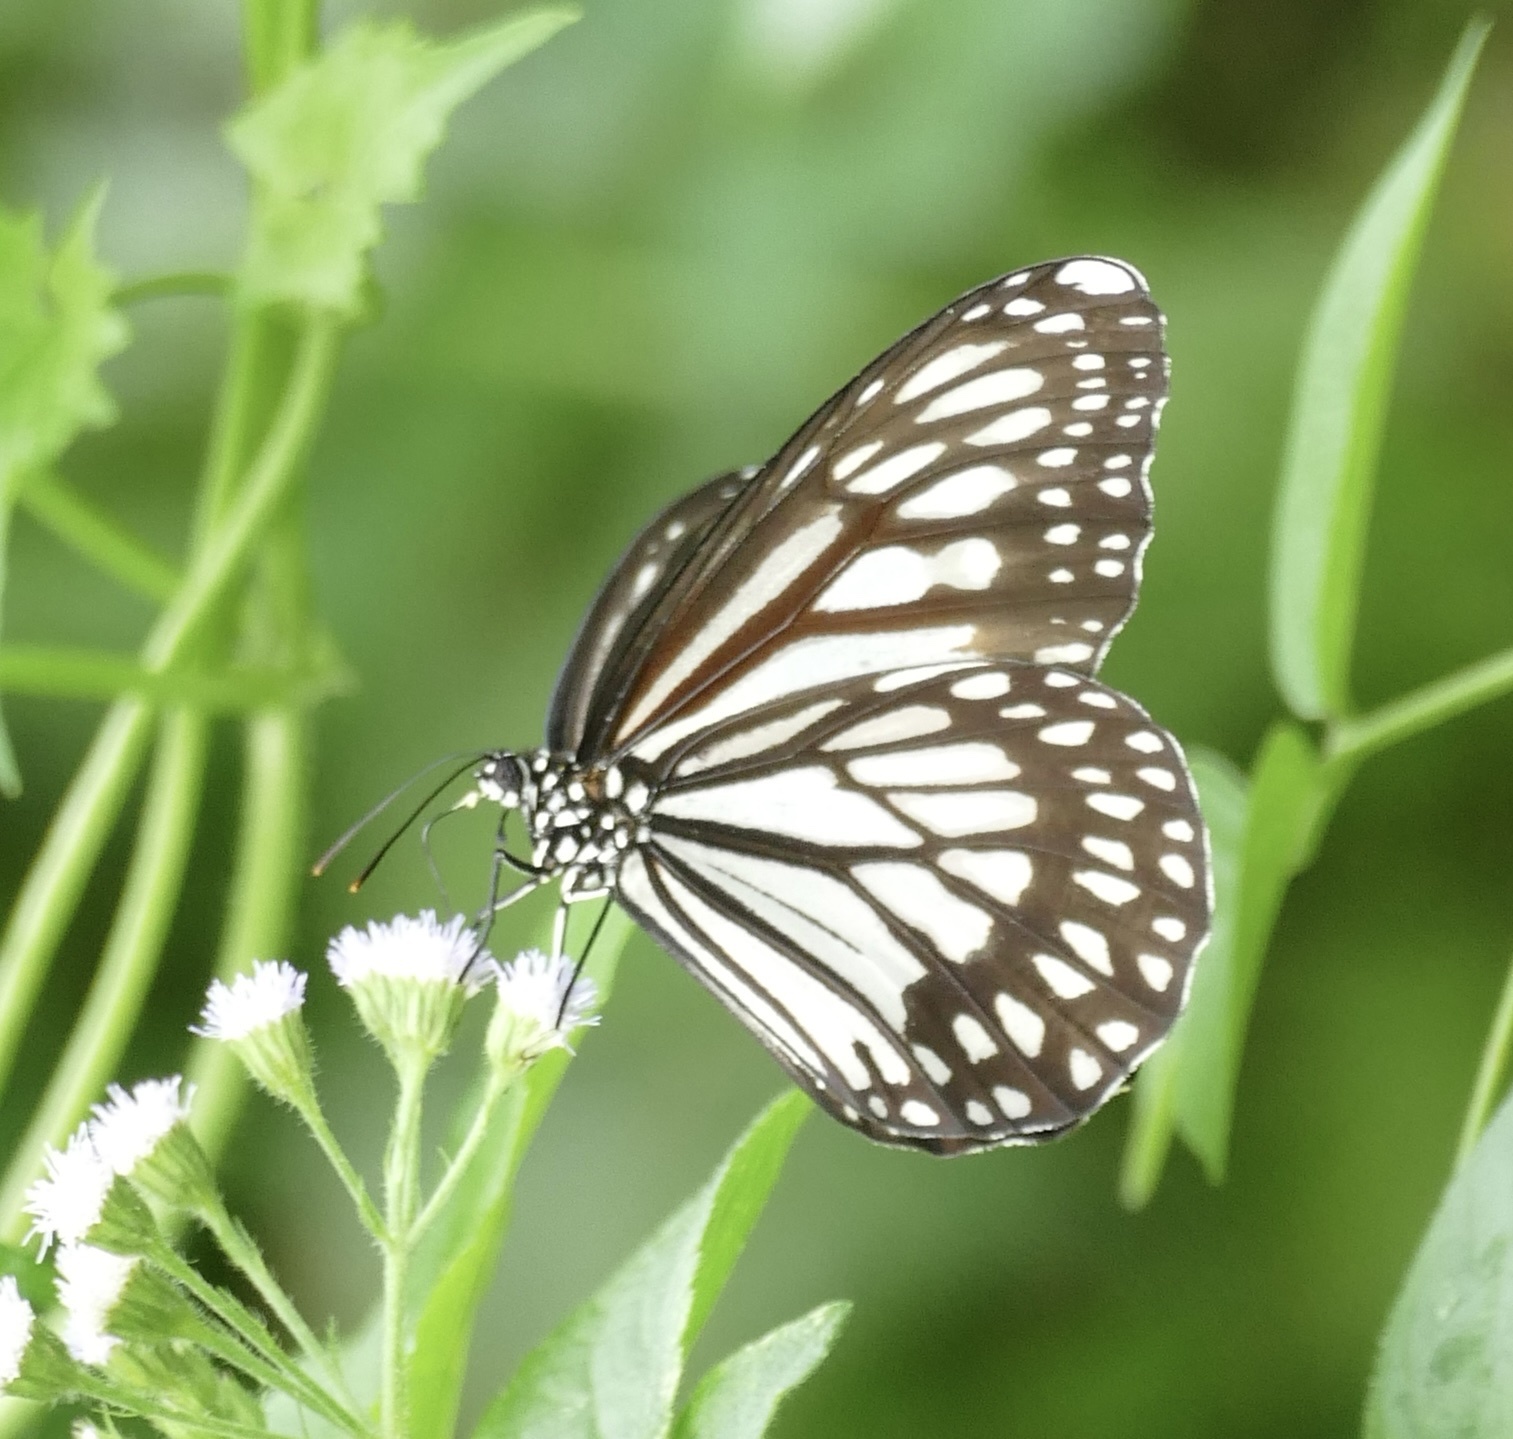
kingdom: Animalia
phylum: Arthropoda
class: Insecta
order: Lepidoptera
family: Nymphalidae
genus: Danaus
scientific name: Danaus ismare
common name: Ismare tiger butterfly
